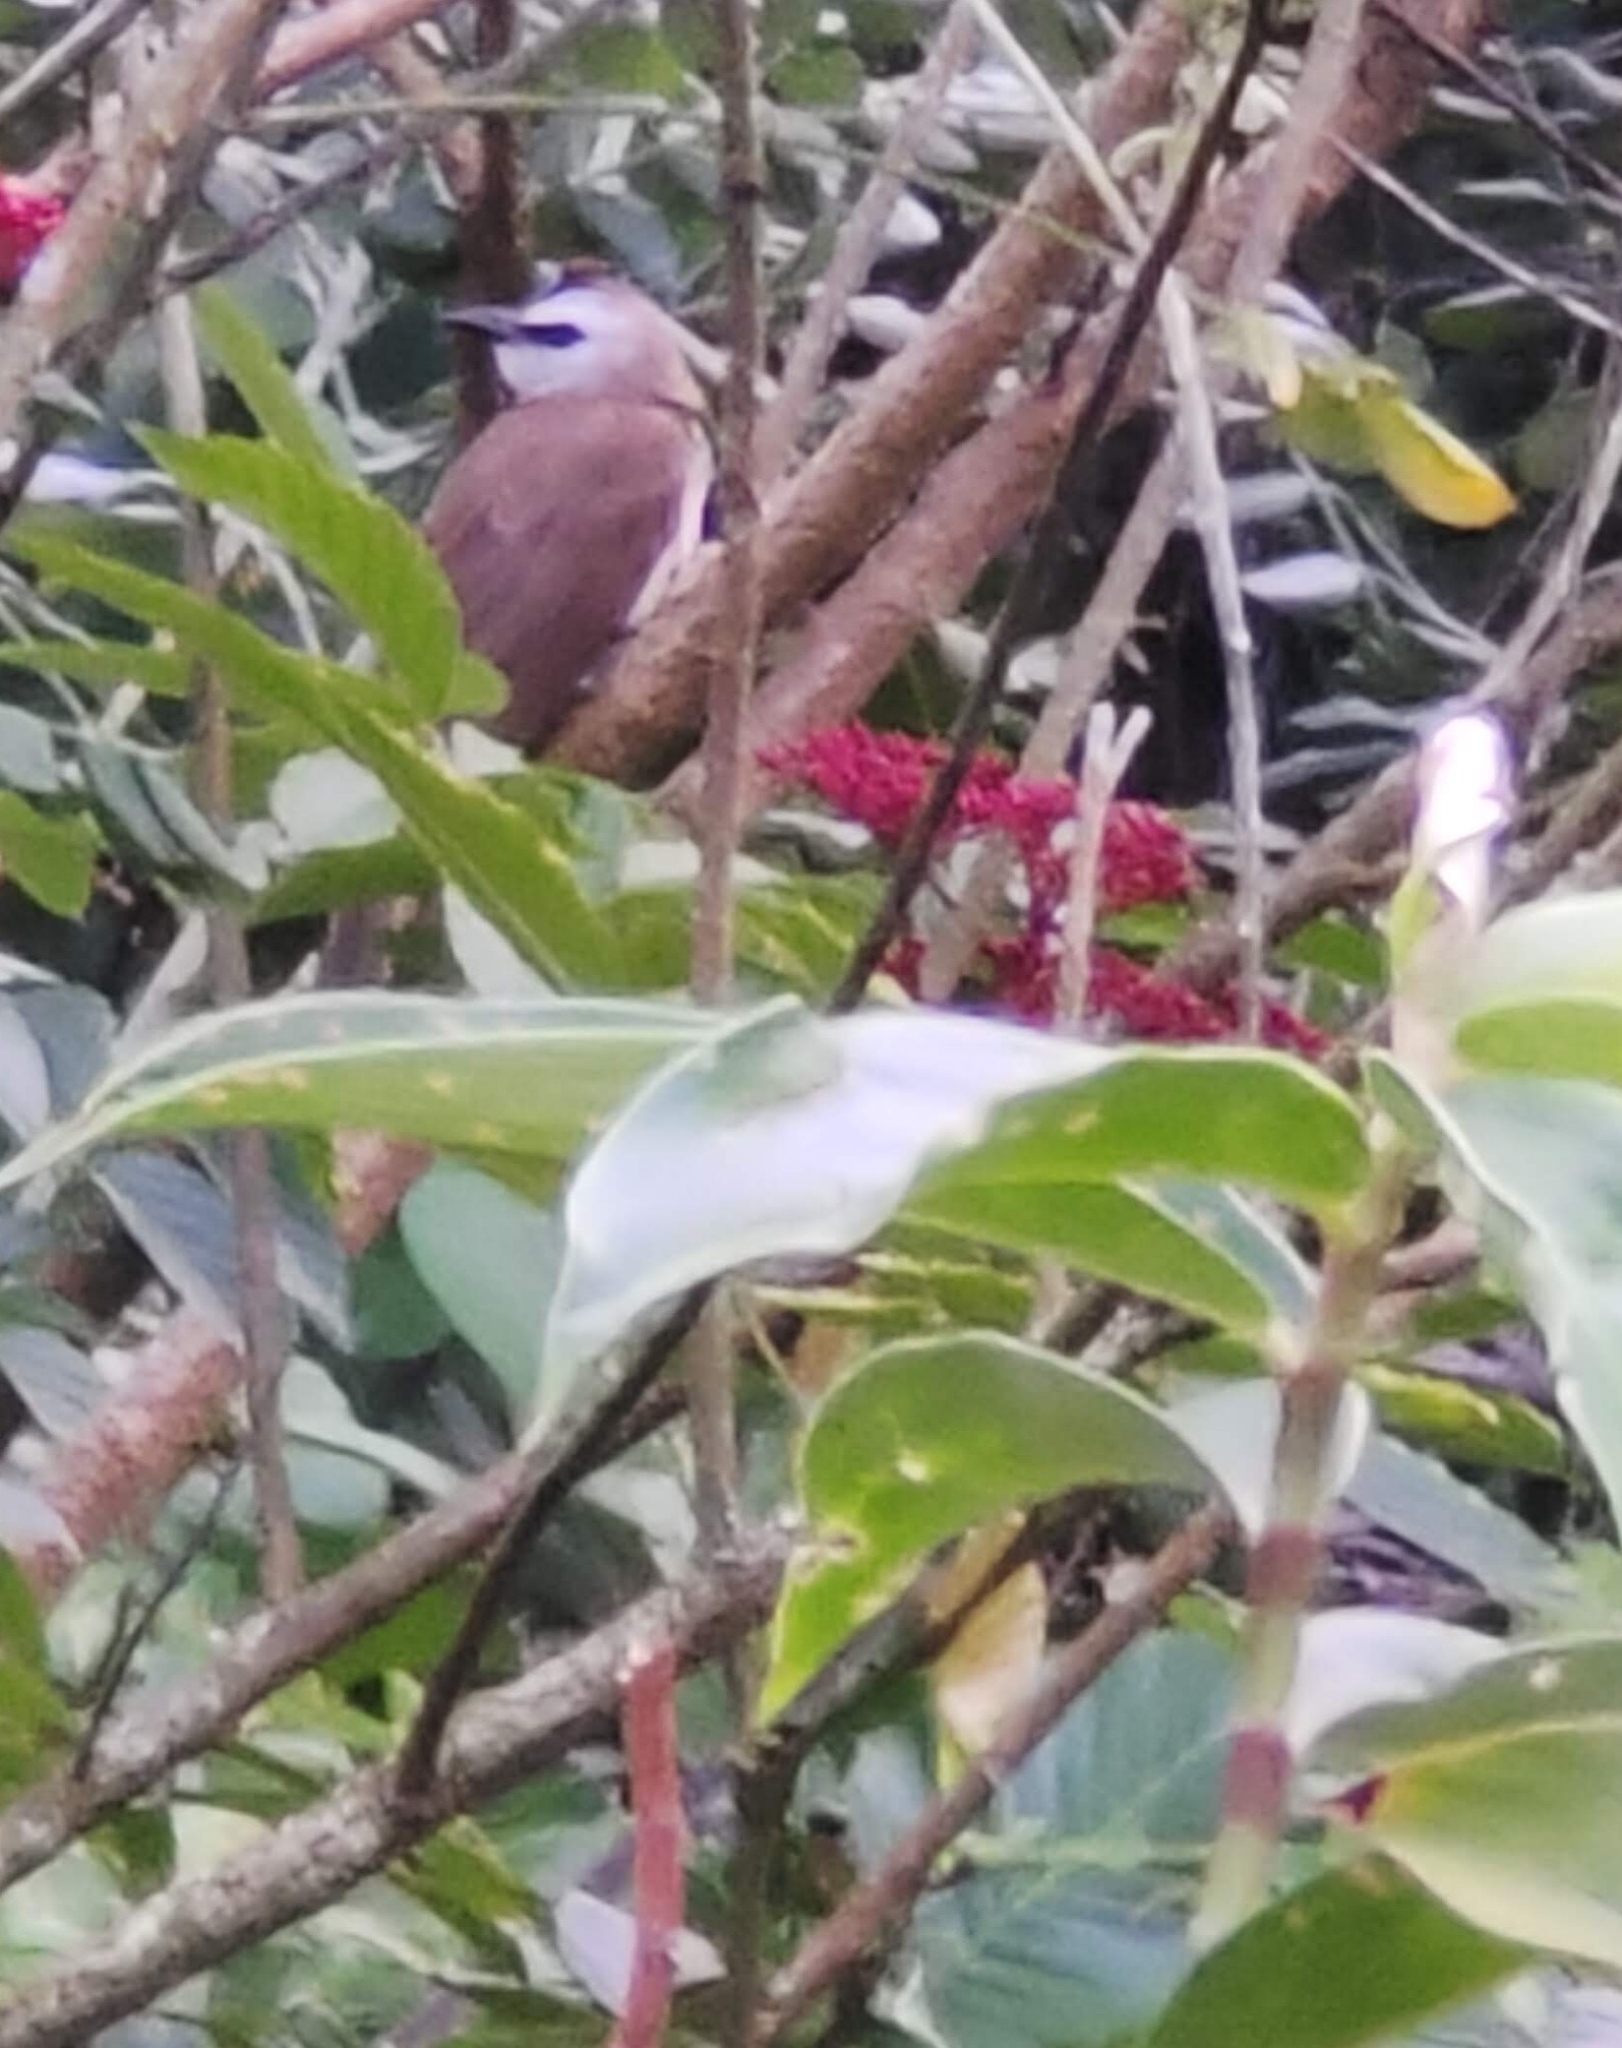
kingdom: Animalia
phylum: Chordata
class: Aves
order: Passeriformes
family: Pycnonotidae
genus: Pycnonotus
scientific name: Pycnonotus goiavier
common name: Yellow-vented bulbul
